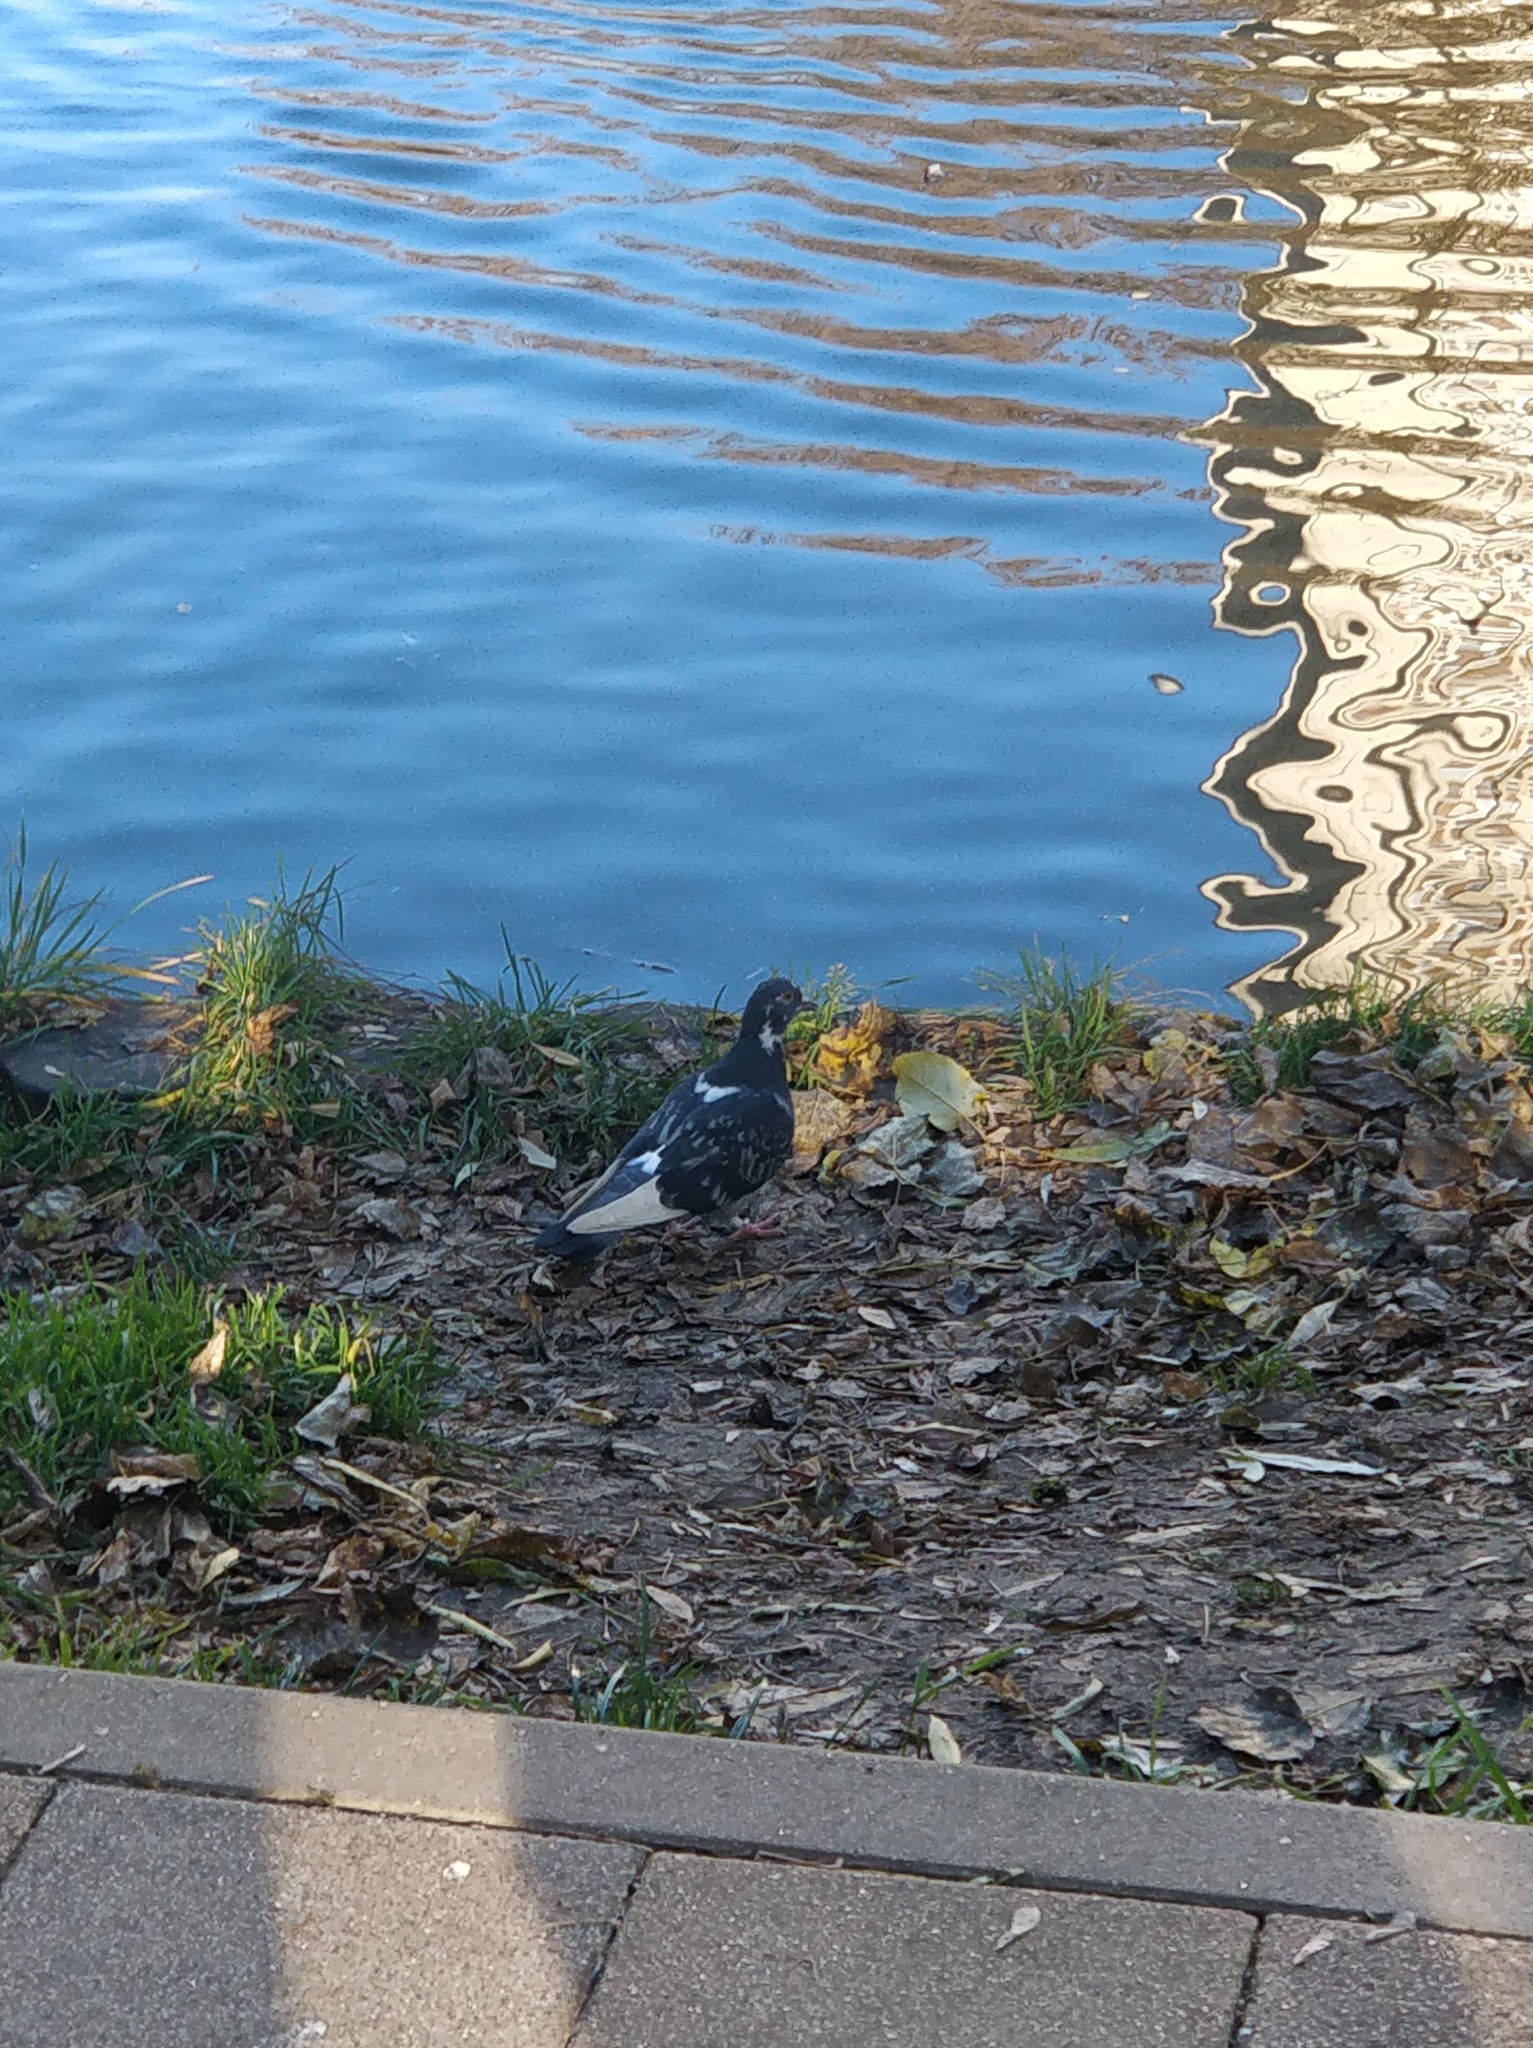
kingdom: Animalia
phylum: Chordata
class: Aves
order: Columbiformes
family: Columbidae
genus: Columba
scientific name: Columba livia
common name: Rock pigeon
